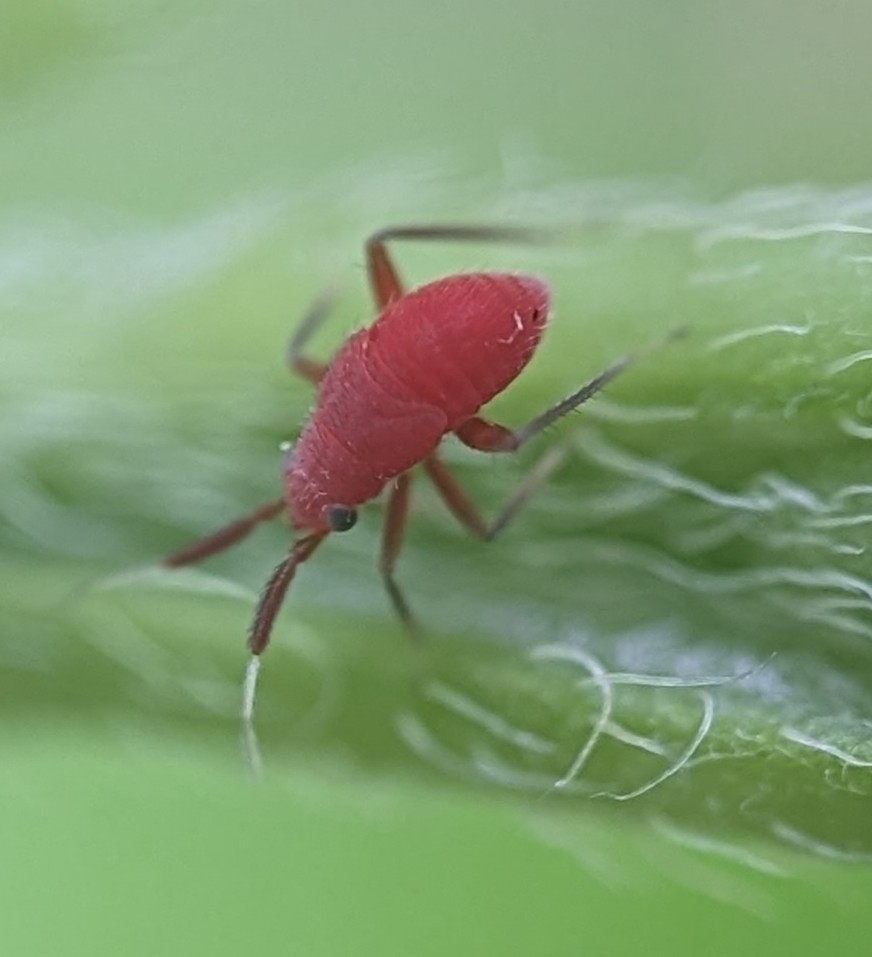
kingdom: Animalia
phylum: Arthropoda
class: Insecta
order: Hemiptera
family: Miridae
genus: Coccobaphes
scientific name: Coccobaphes frontifer
